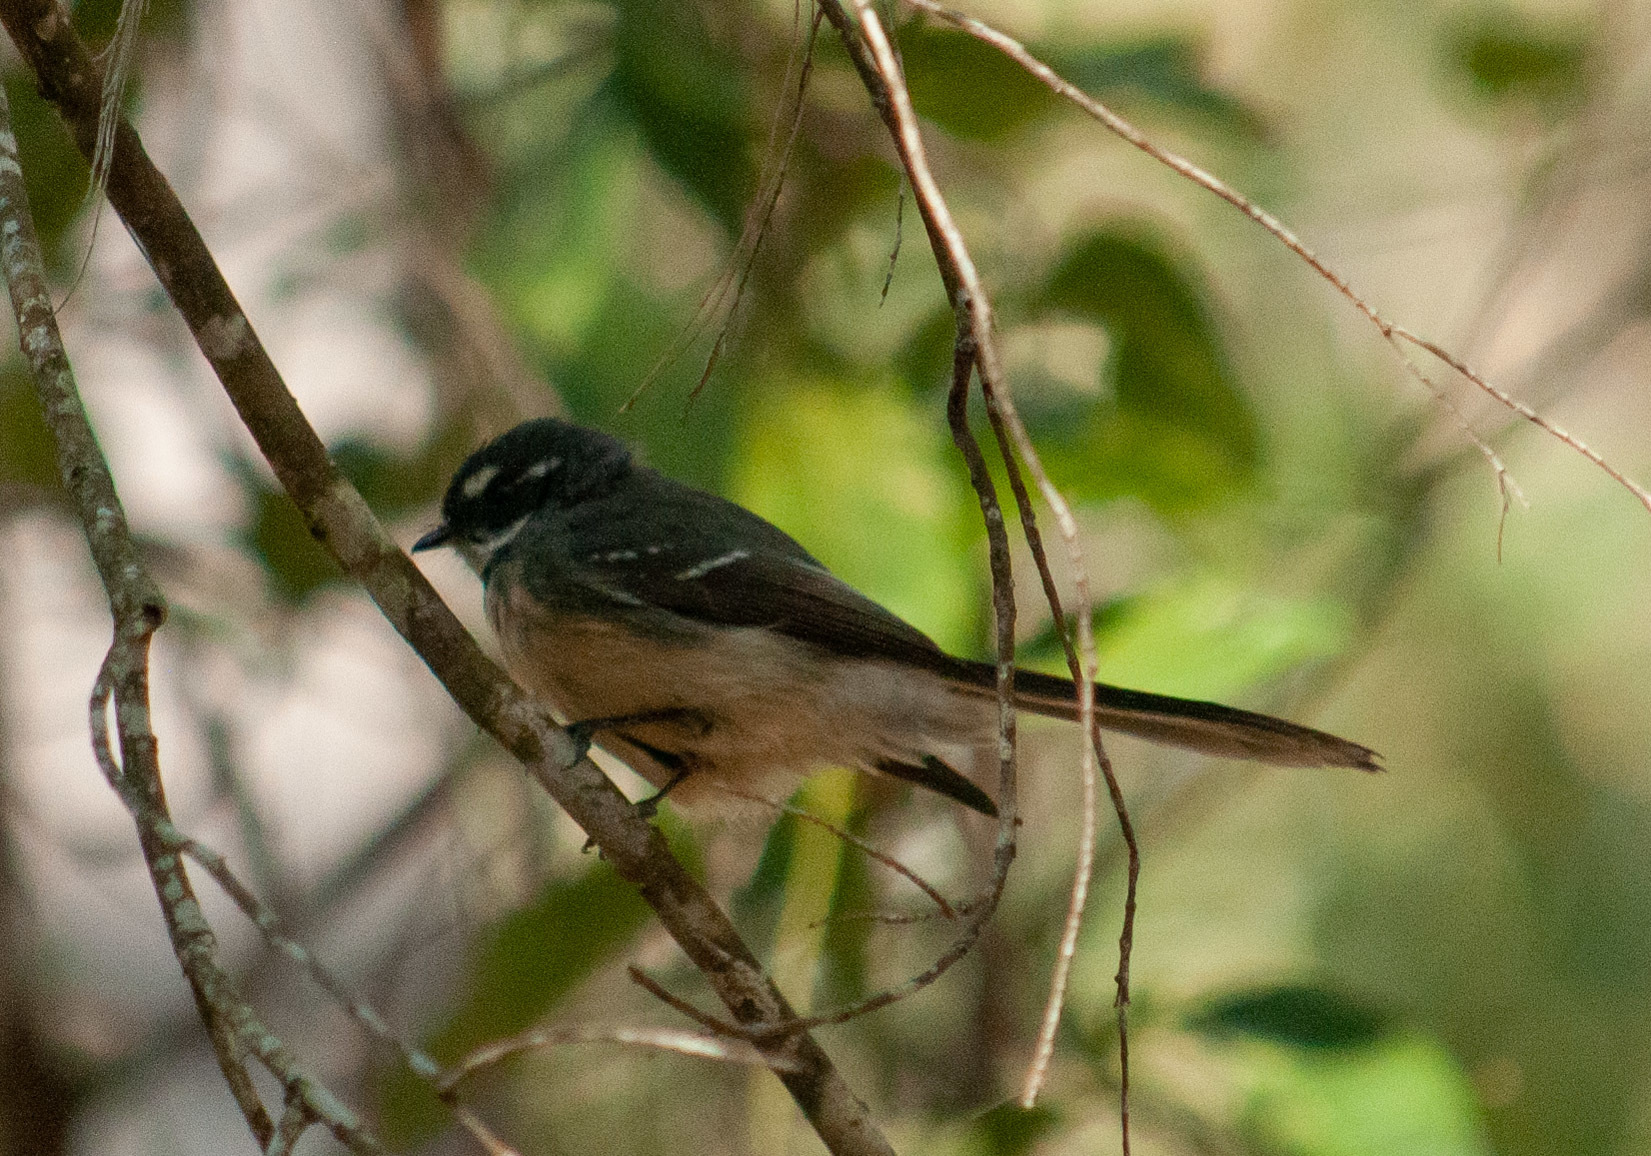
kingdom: Animalia
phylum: Chordata
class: Aves
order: Passeriformes
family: Rhipiduridae
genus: Rhipidura
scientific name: Rhipidura albiscapa
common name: Grey fantail
